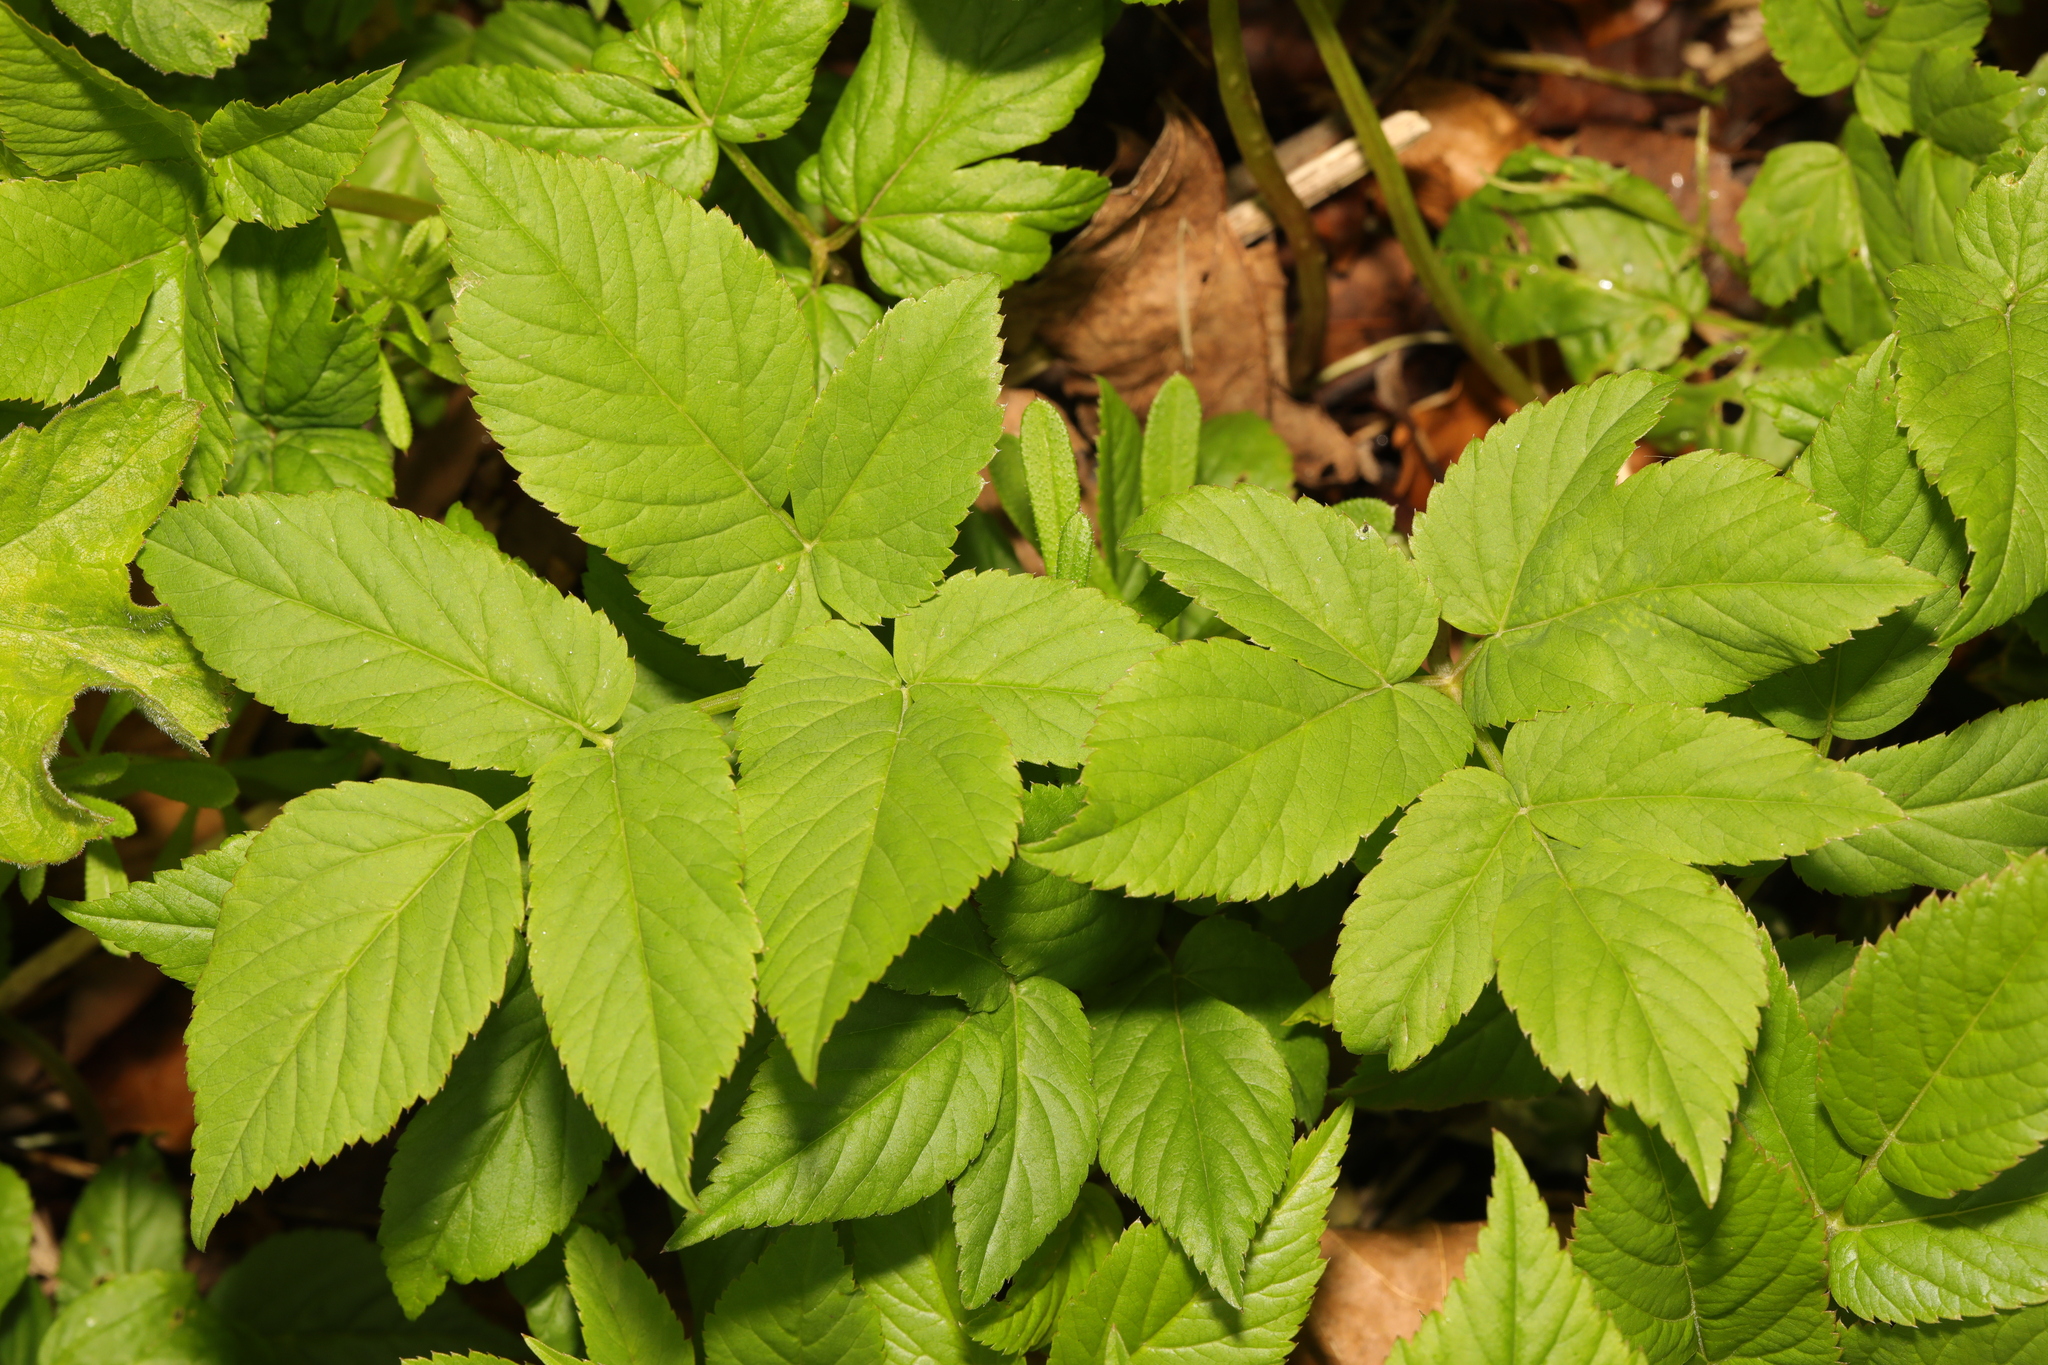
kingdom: Plantae
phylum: Tracheophyta
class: Magnoliopsida
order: Apiales
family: Apiaceae
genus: Aegopodium
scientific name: Aegopodium podagraria
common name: Ground-elder
